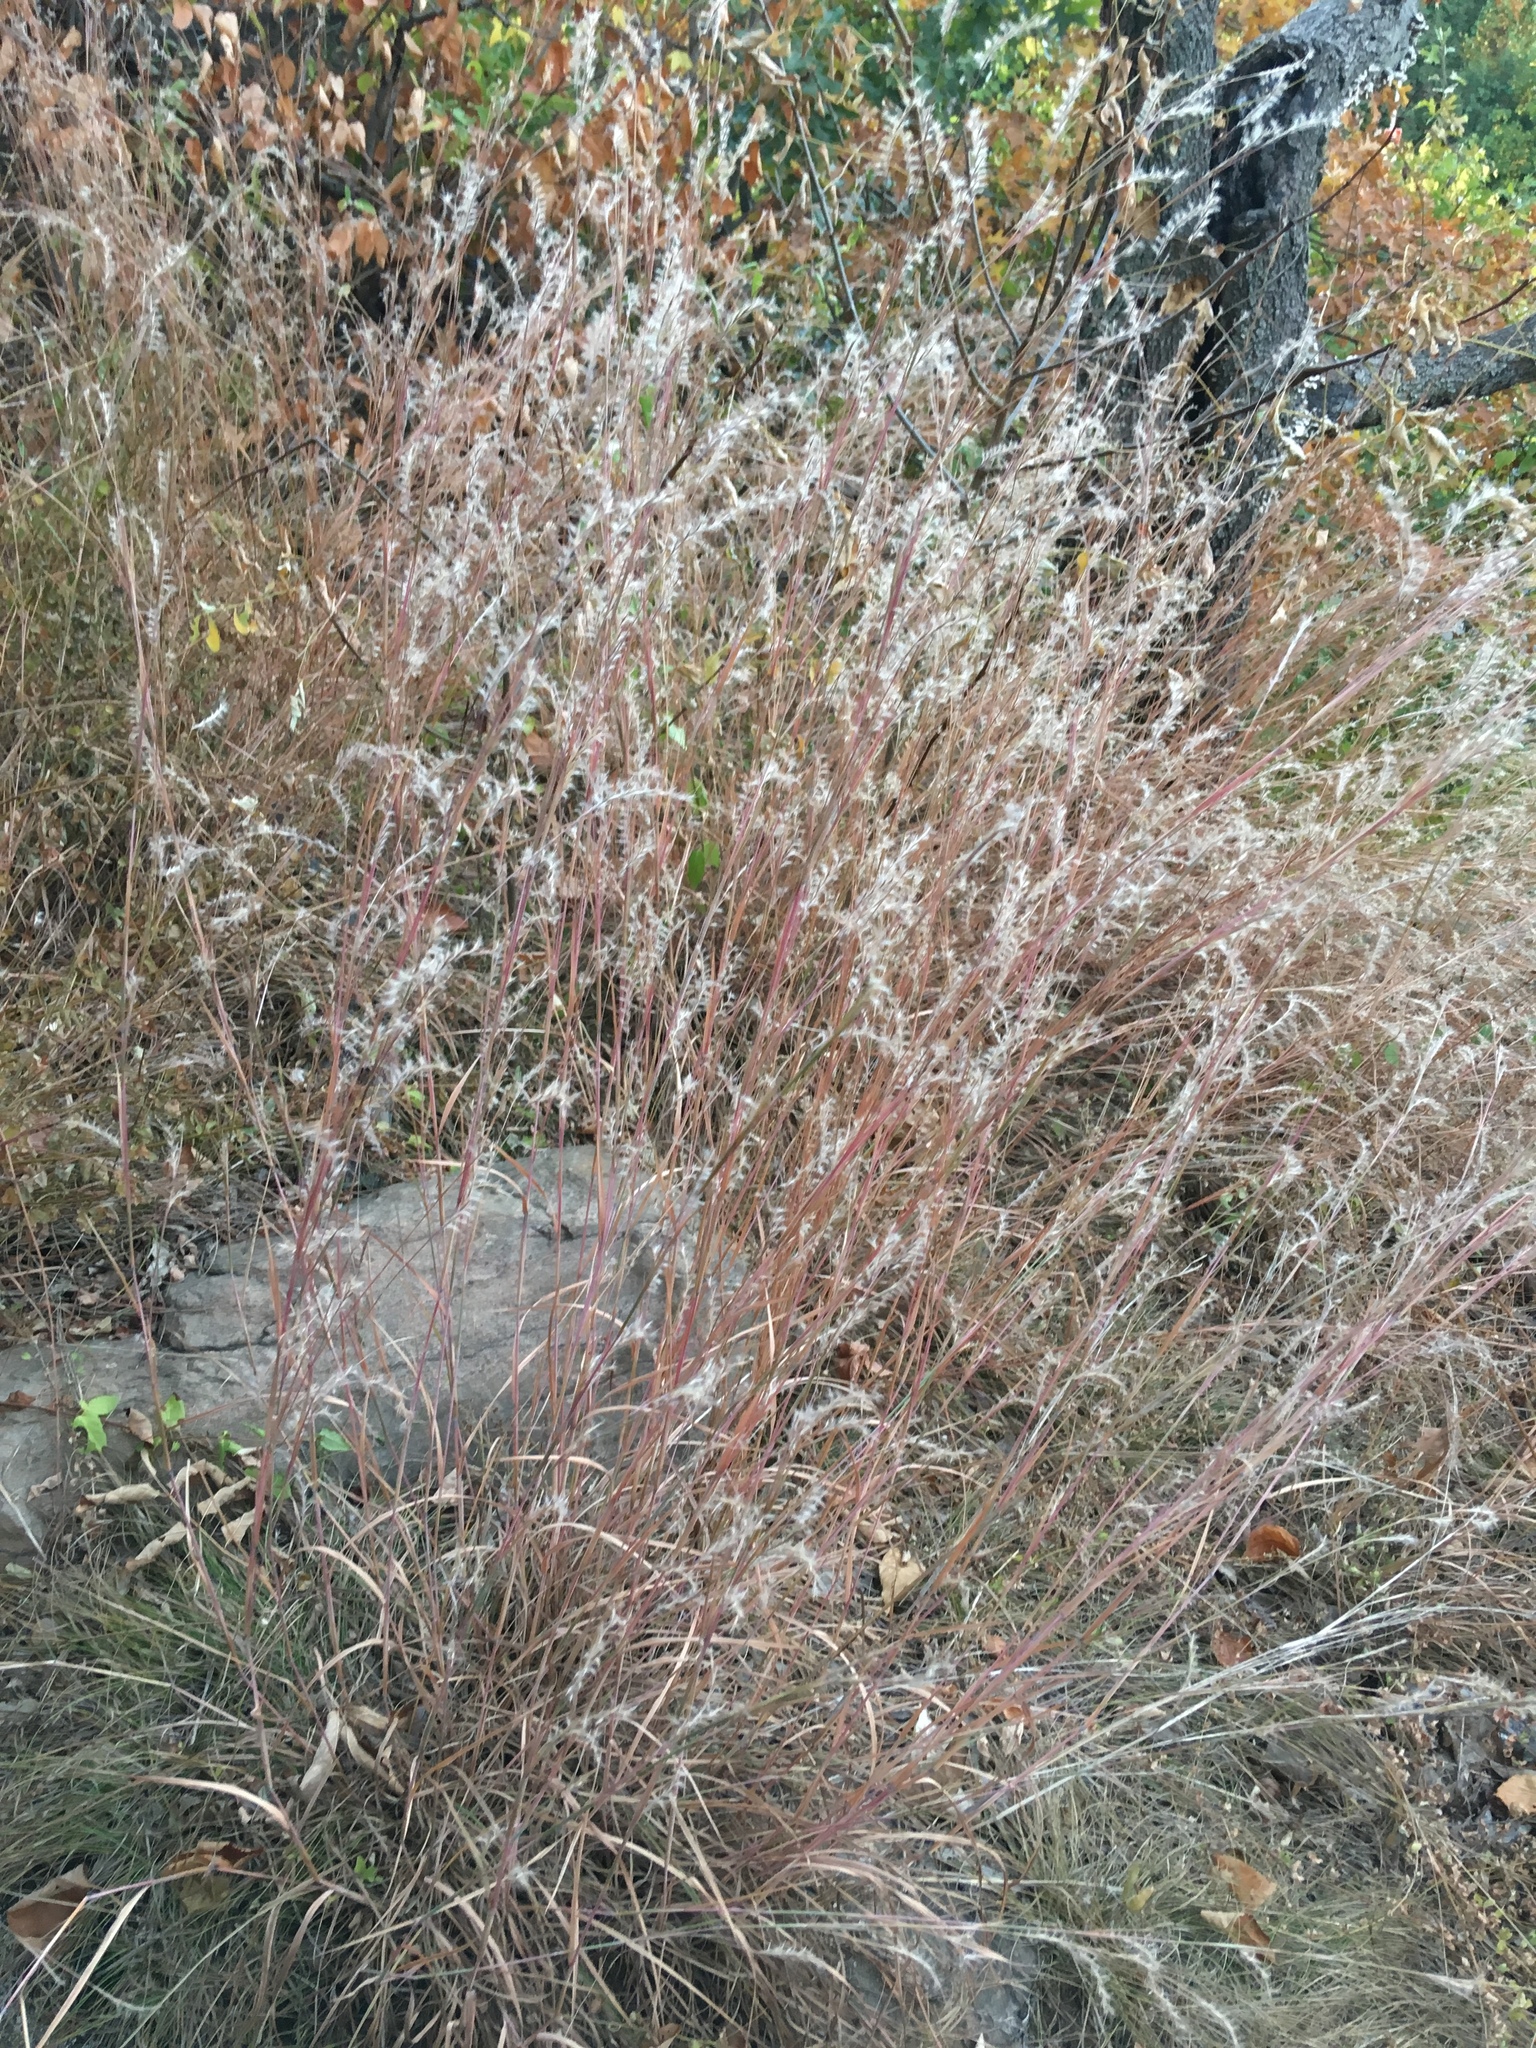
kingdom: Plantae
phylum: Tracheophyta
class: Liliopsida
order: Poales
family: Poaceae
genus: Schizachyrium
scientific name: Schizachyrium scoparium
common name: Little bluestem
